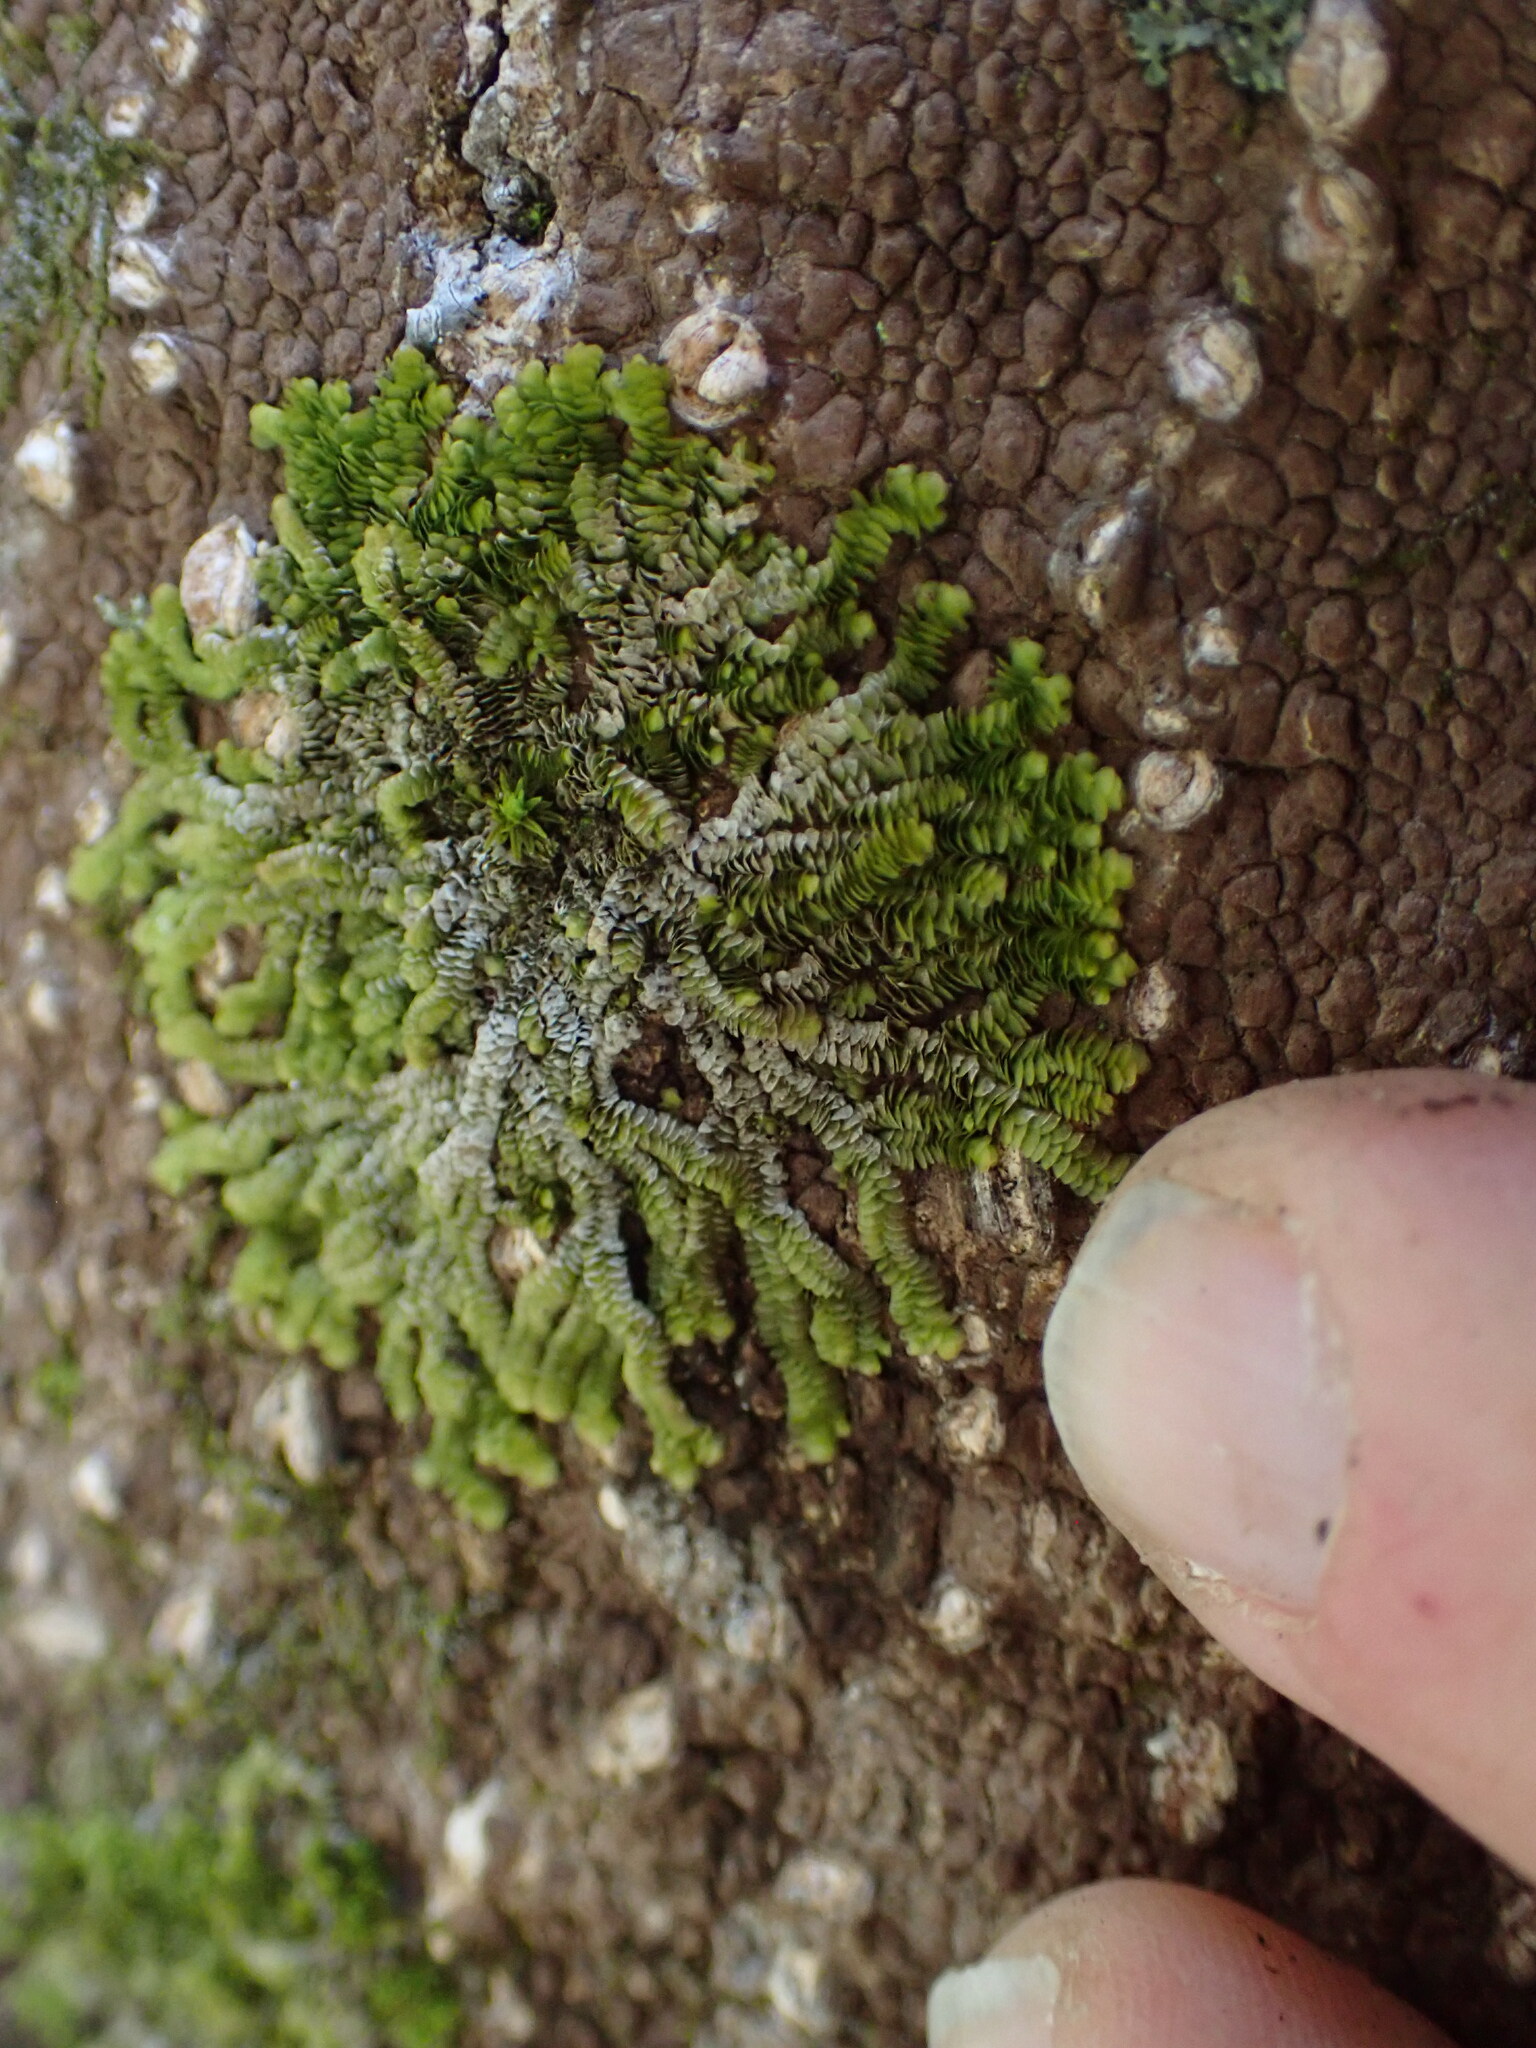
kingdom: Plantae
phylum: Marchantiophyta
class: Jungermanniopsida
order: Porellales
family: Lejeuneaceae
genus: Acrolejeunea
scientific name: Acrolejeunea sandvicensis
